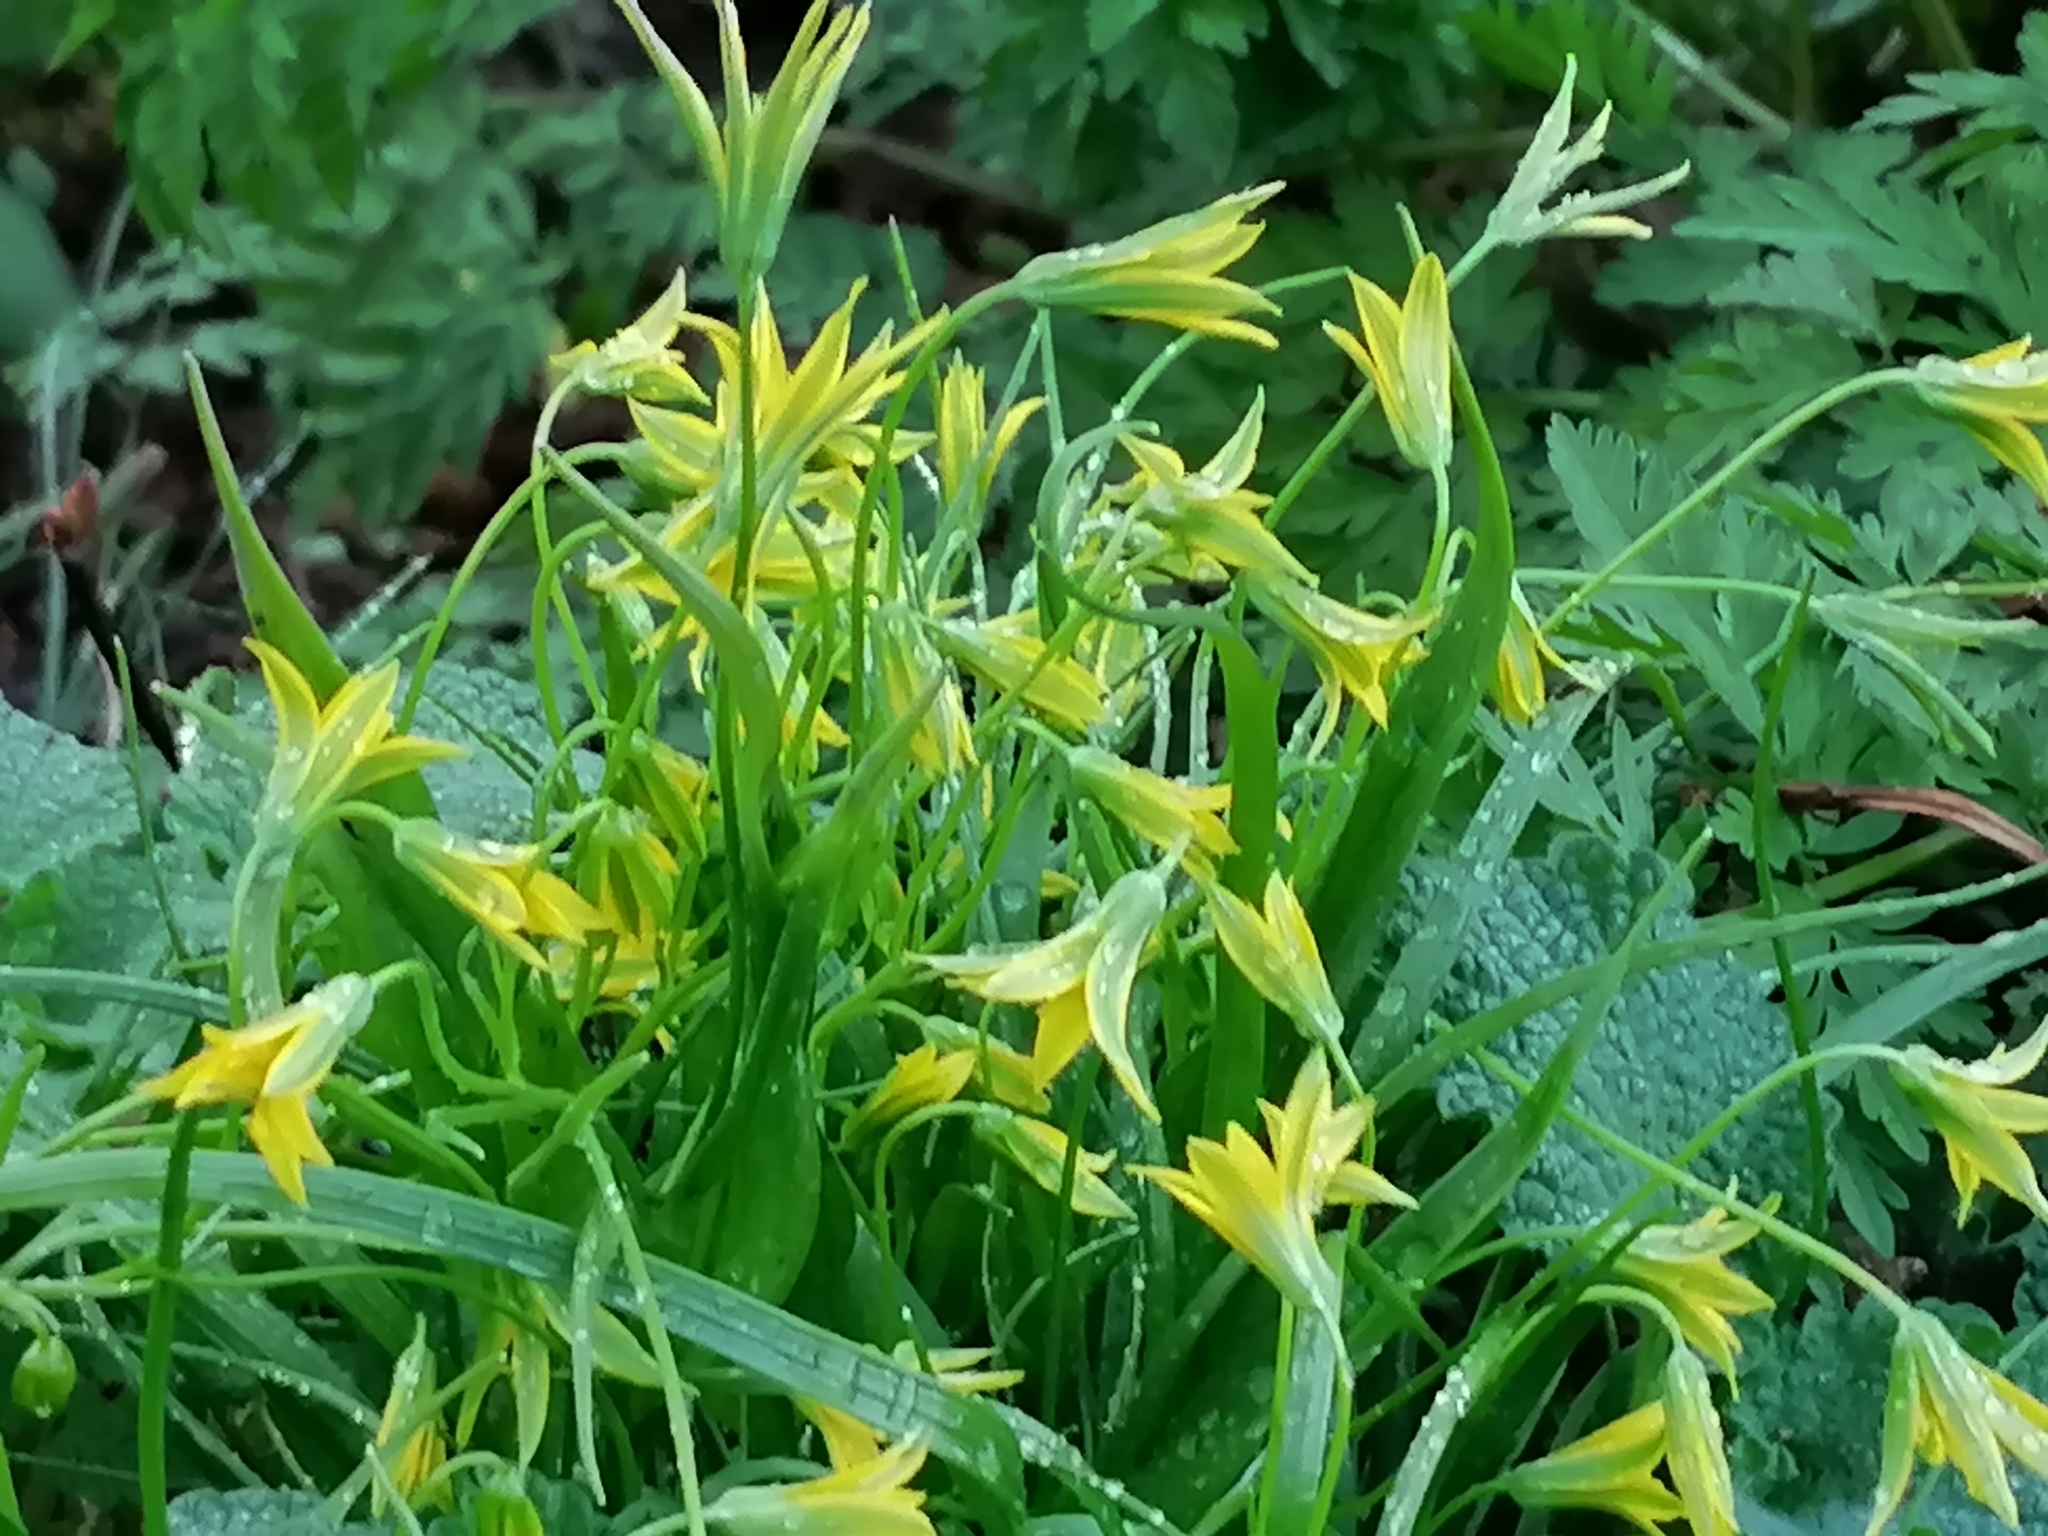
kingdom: Plantae
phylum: Tracheophyta
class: Liliopsida
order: Liliales
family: Liliaceae
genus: Gagea
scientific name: Gagea minima
